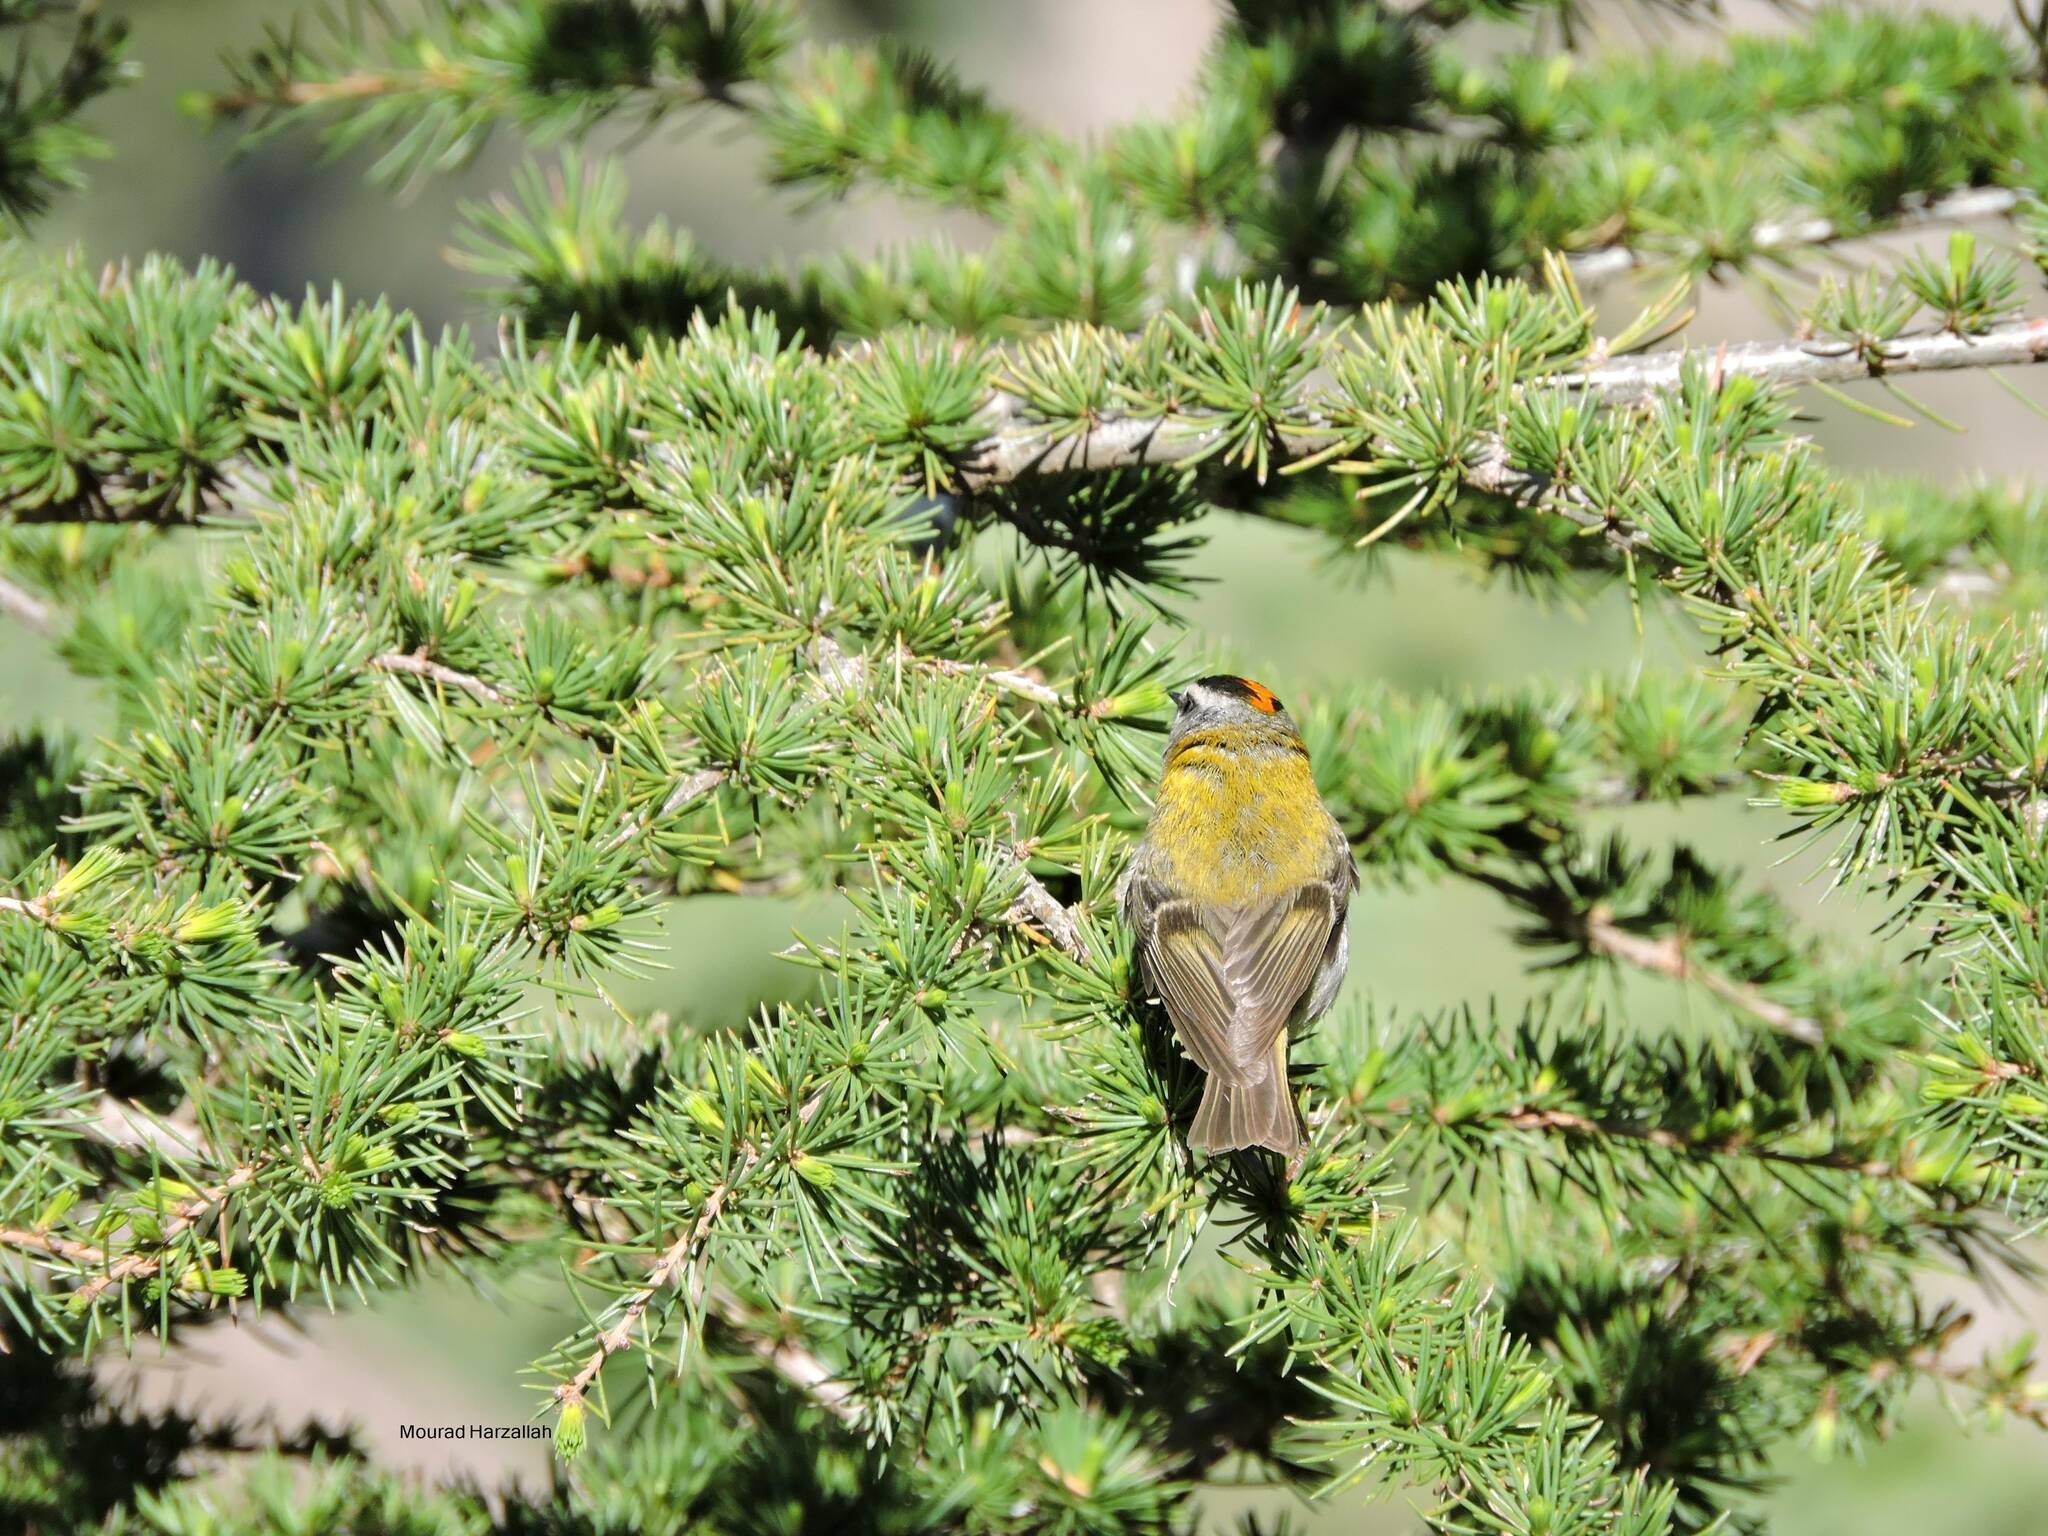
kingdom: Animalia
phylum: Chordata
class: Aves
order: Passeriformes
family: Regulidae
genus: Regulus
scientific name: Regulus ignicapilla
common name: Firecrest
